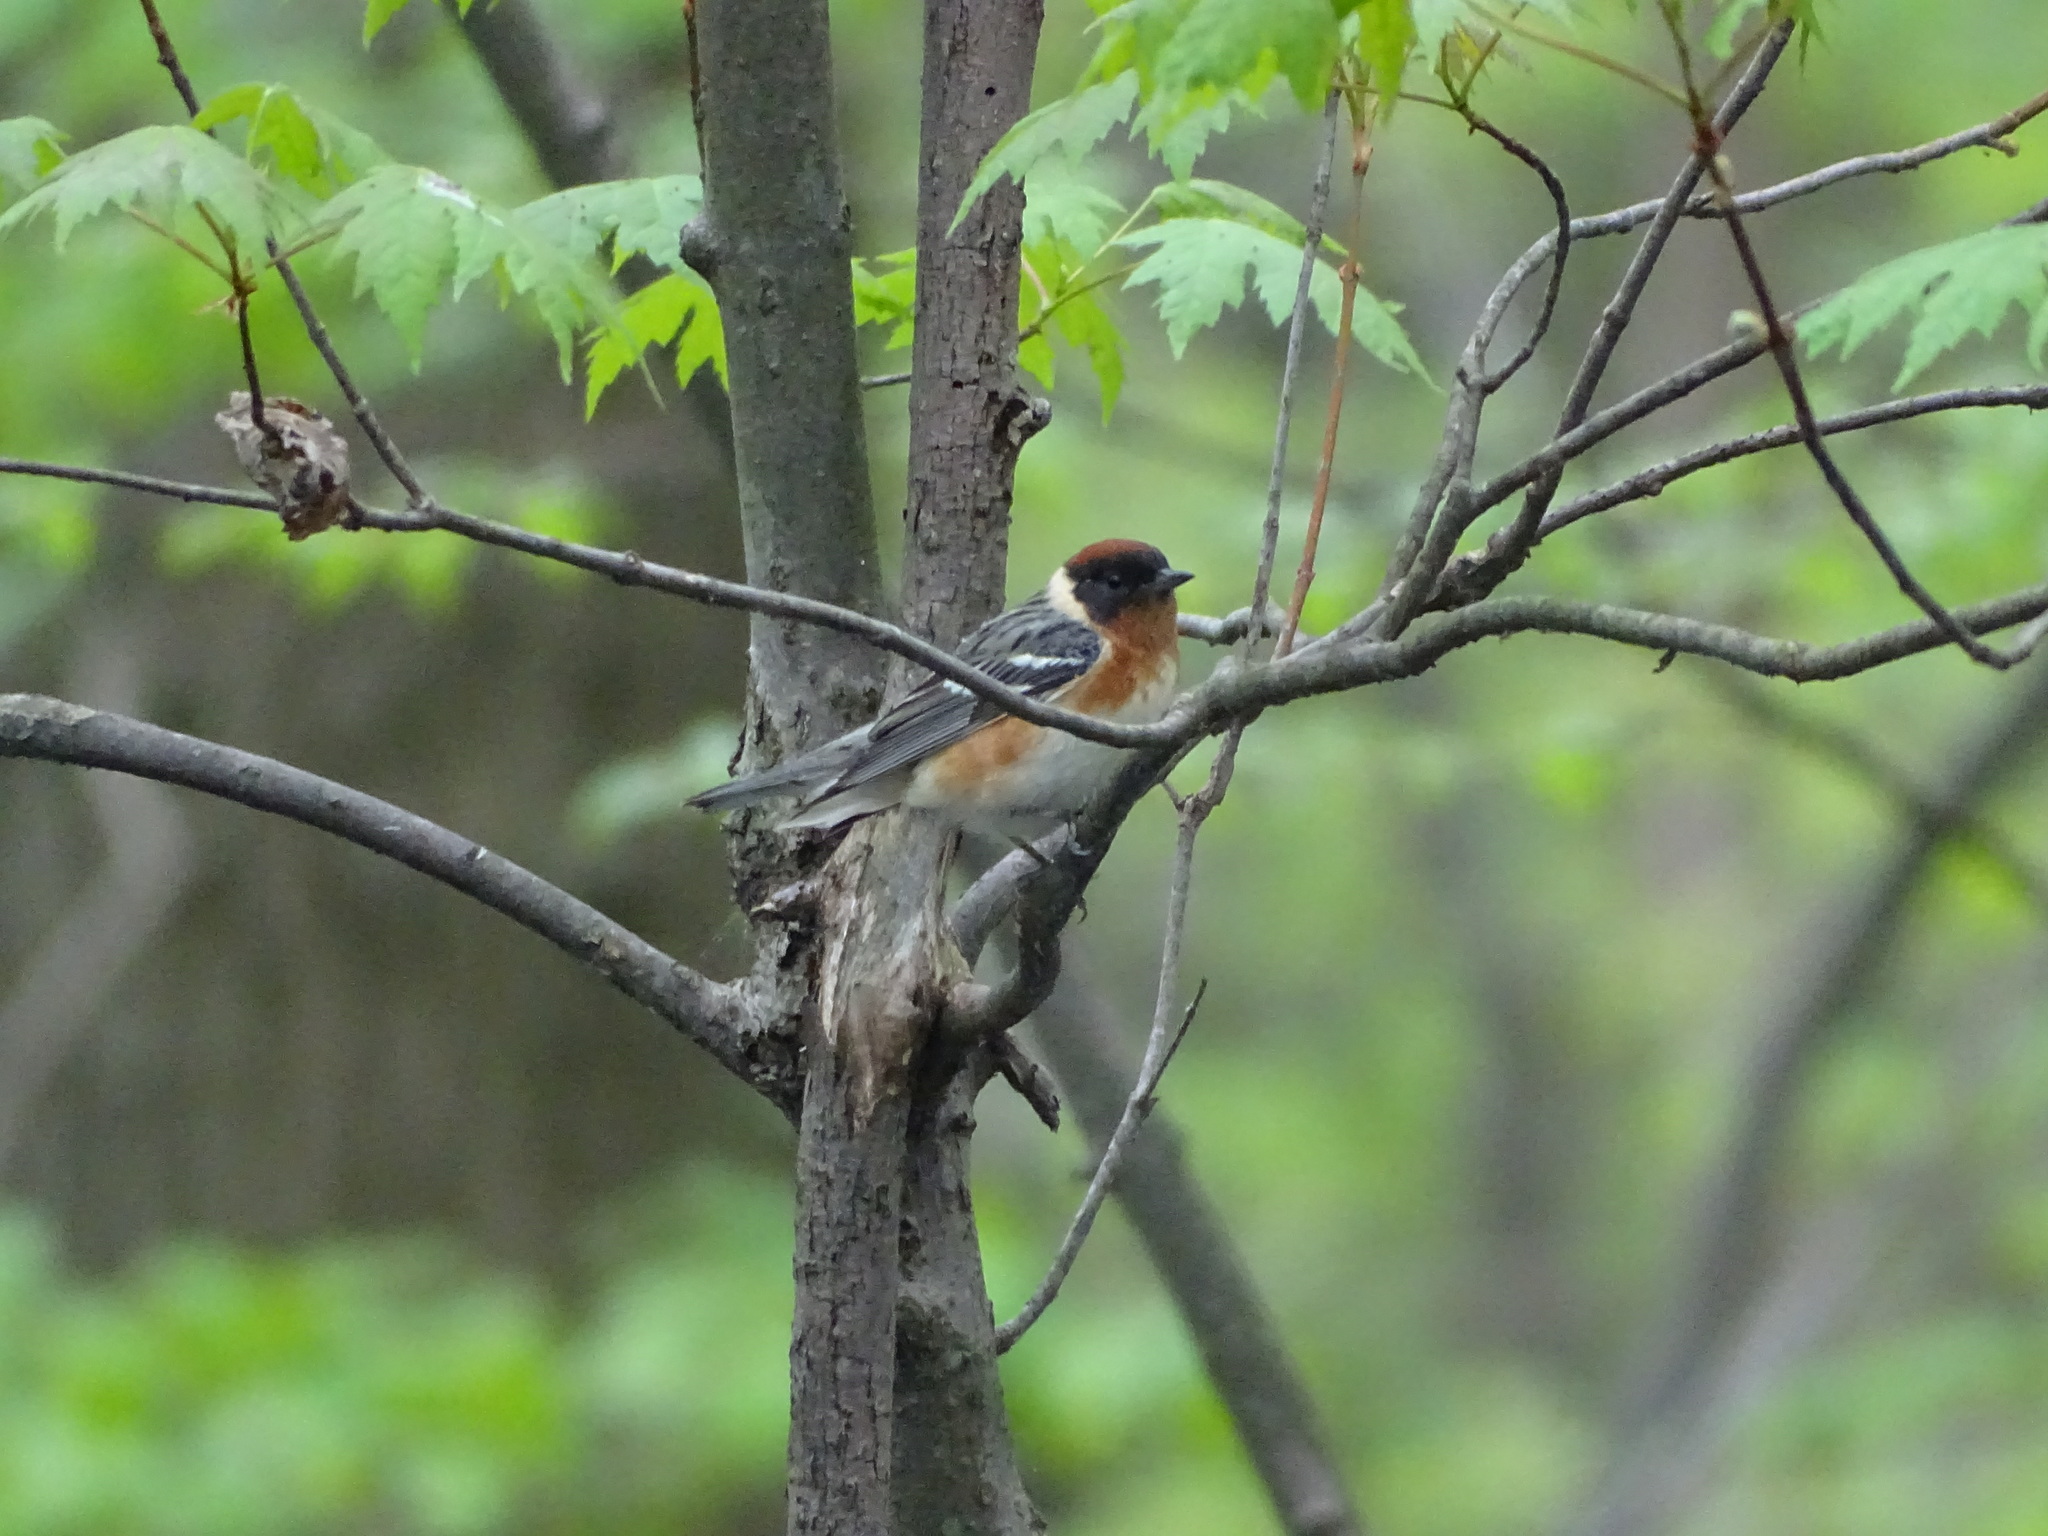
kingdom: Animalia
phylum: Chordata
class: Aves
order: Passeriformes
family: Parulidae
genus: Setophaga
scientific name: Setophaga castanea
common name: Bay-breasted warbler
